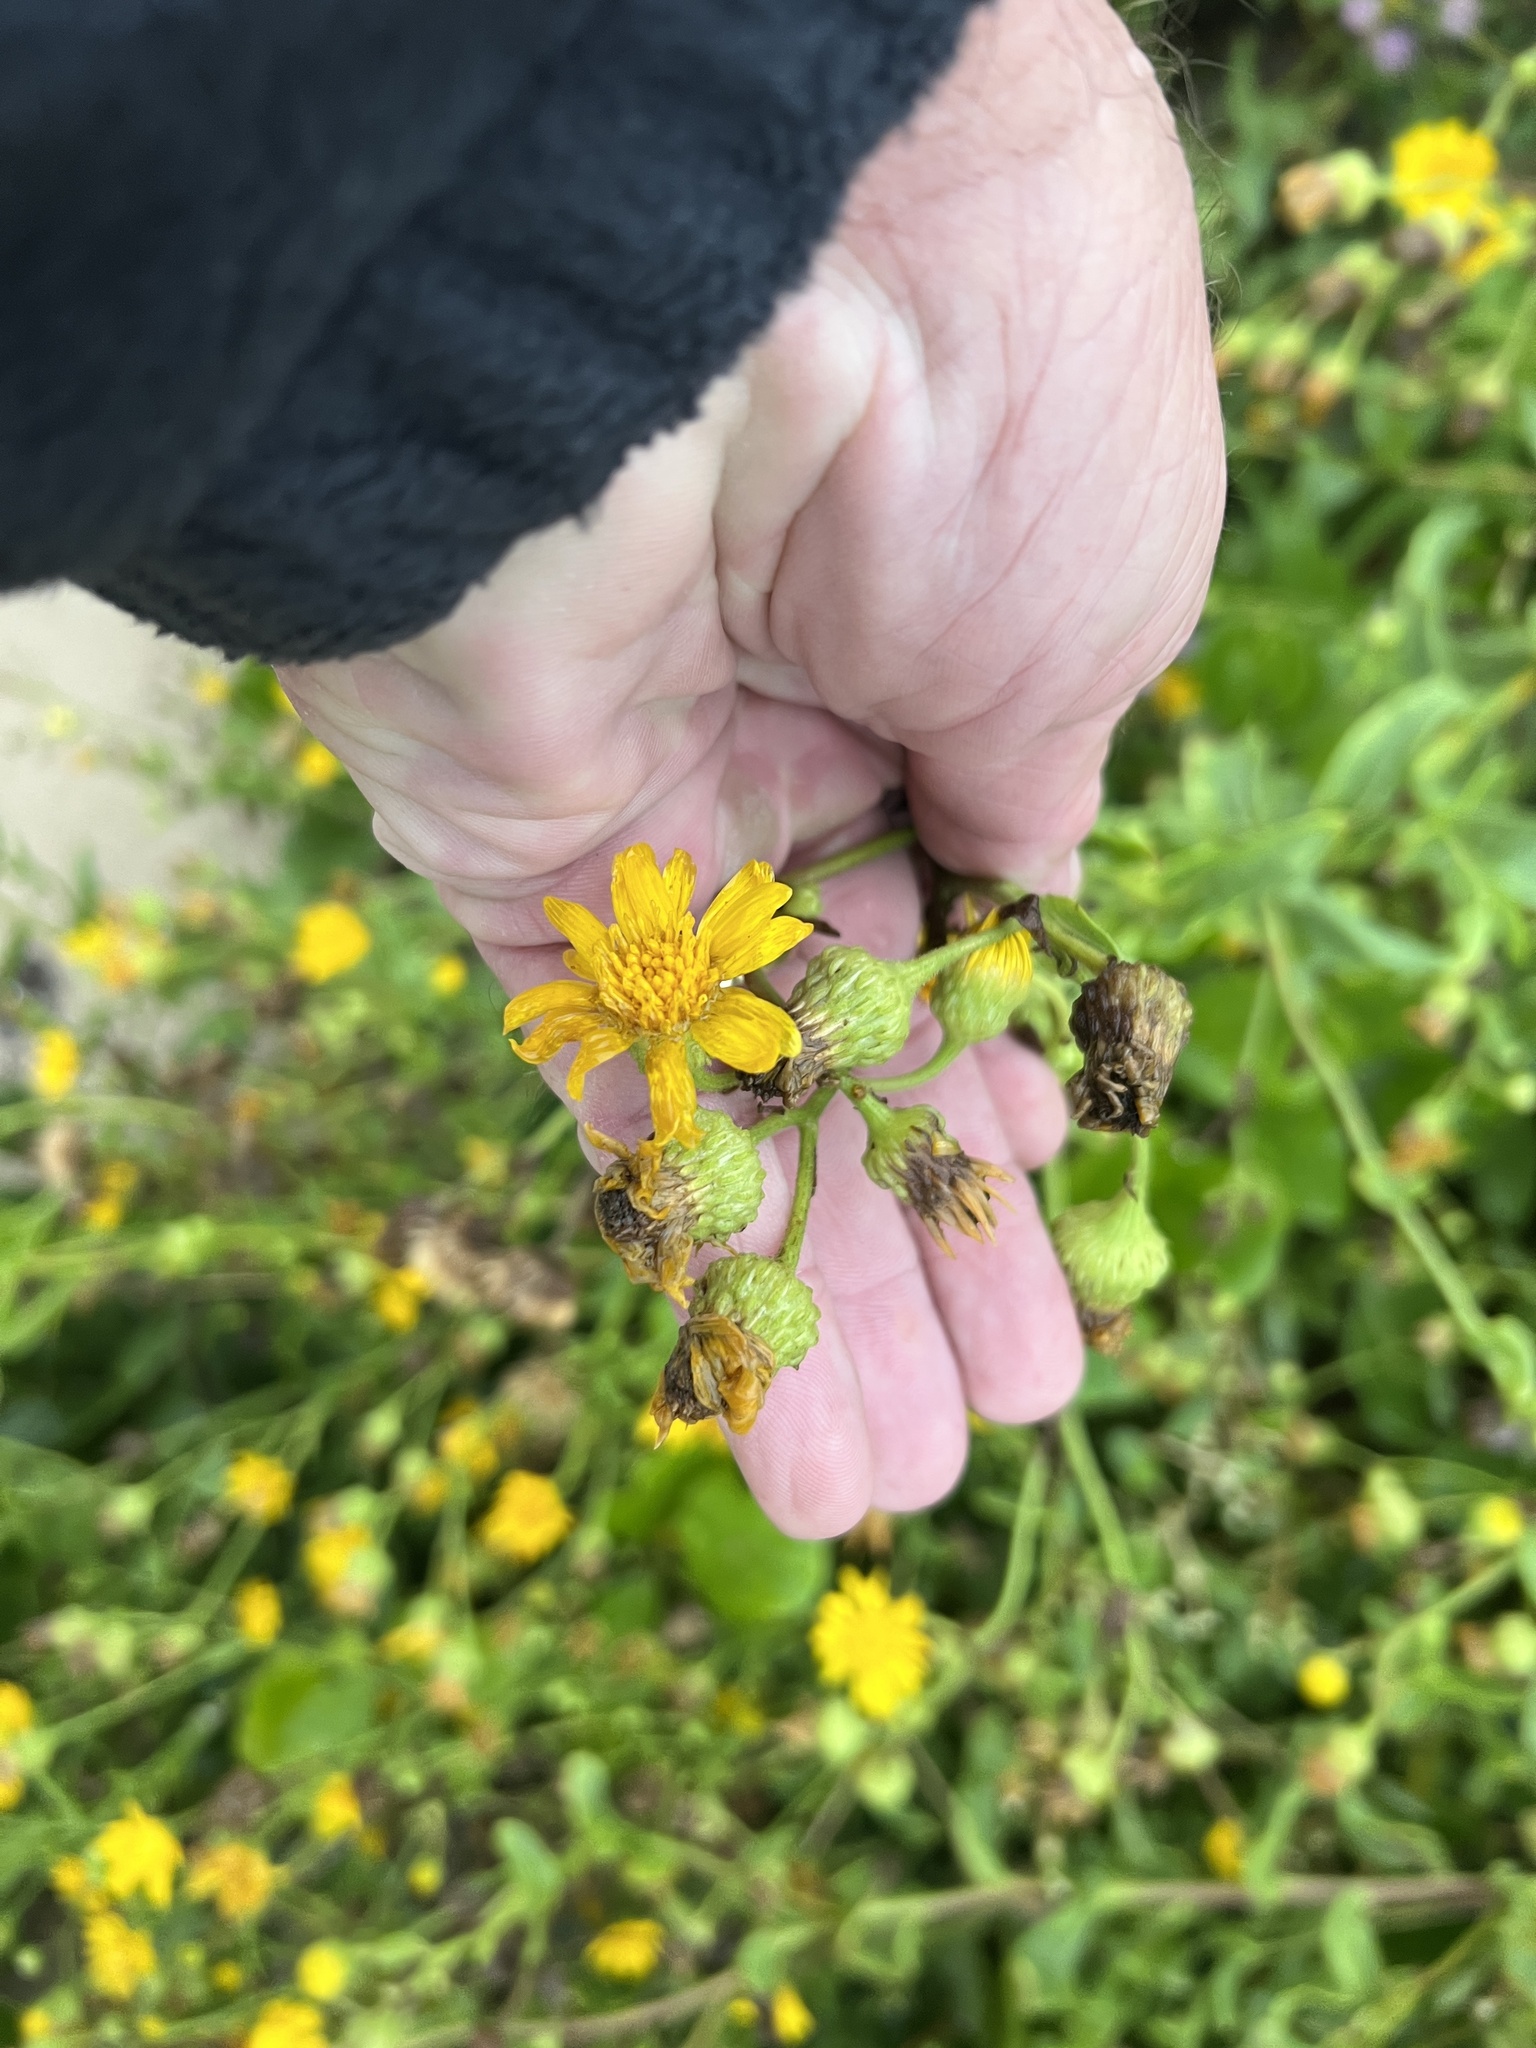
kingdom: Plantae
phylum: Tracheophyta
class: Magnoliopsida
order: Asterales
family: Asteraceae
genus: Heterotheca
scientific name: Heterotheca subaxillaris
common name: Camphorweed
